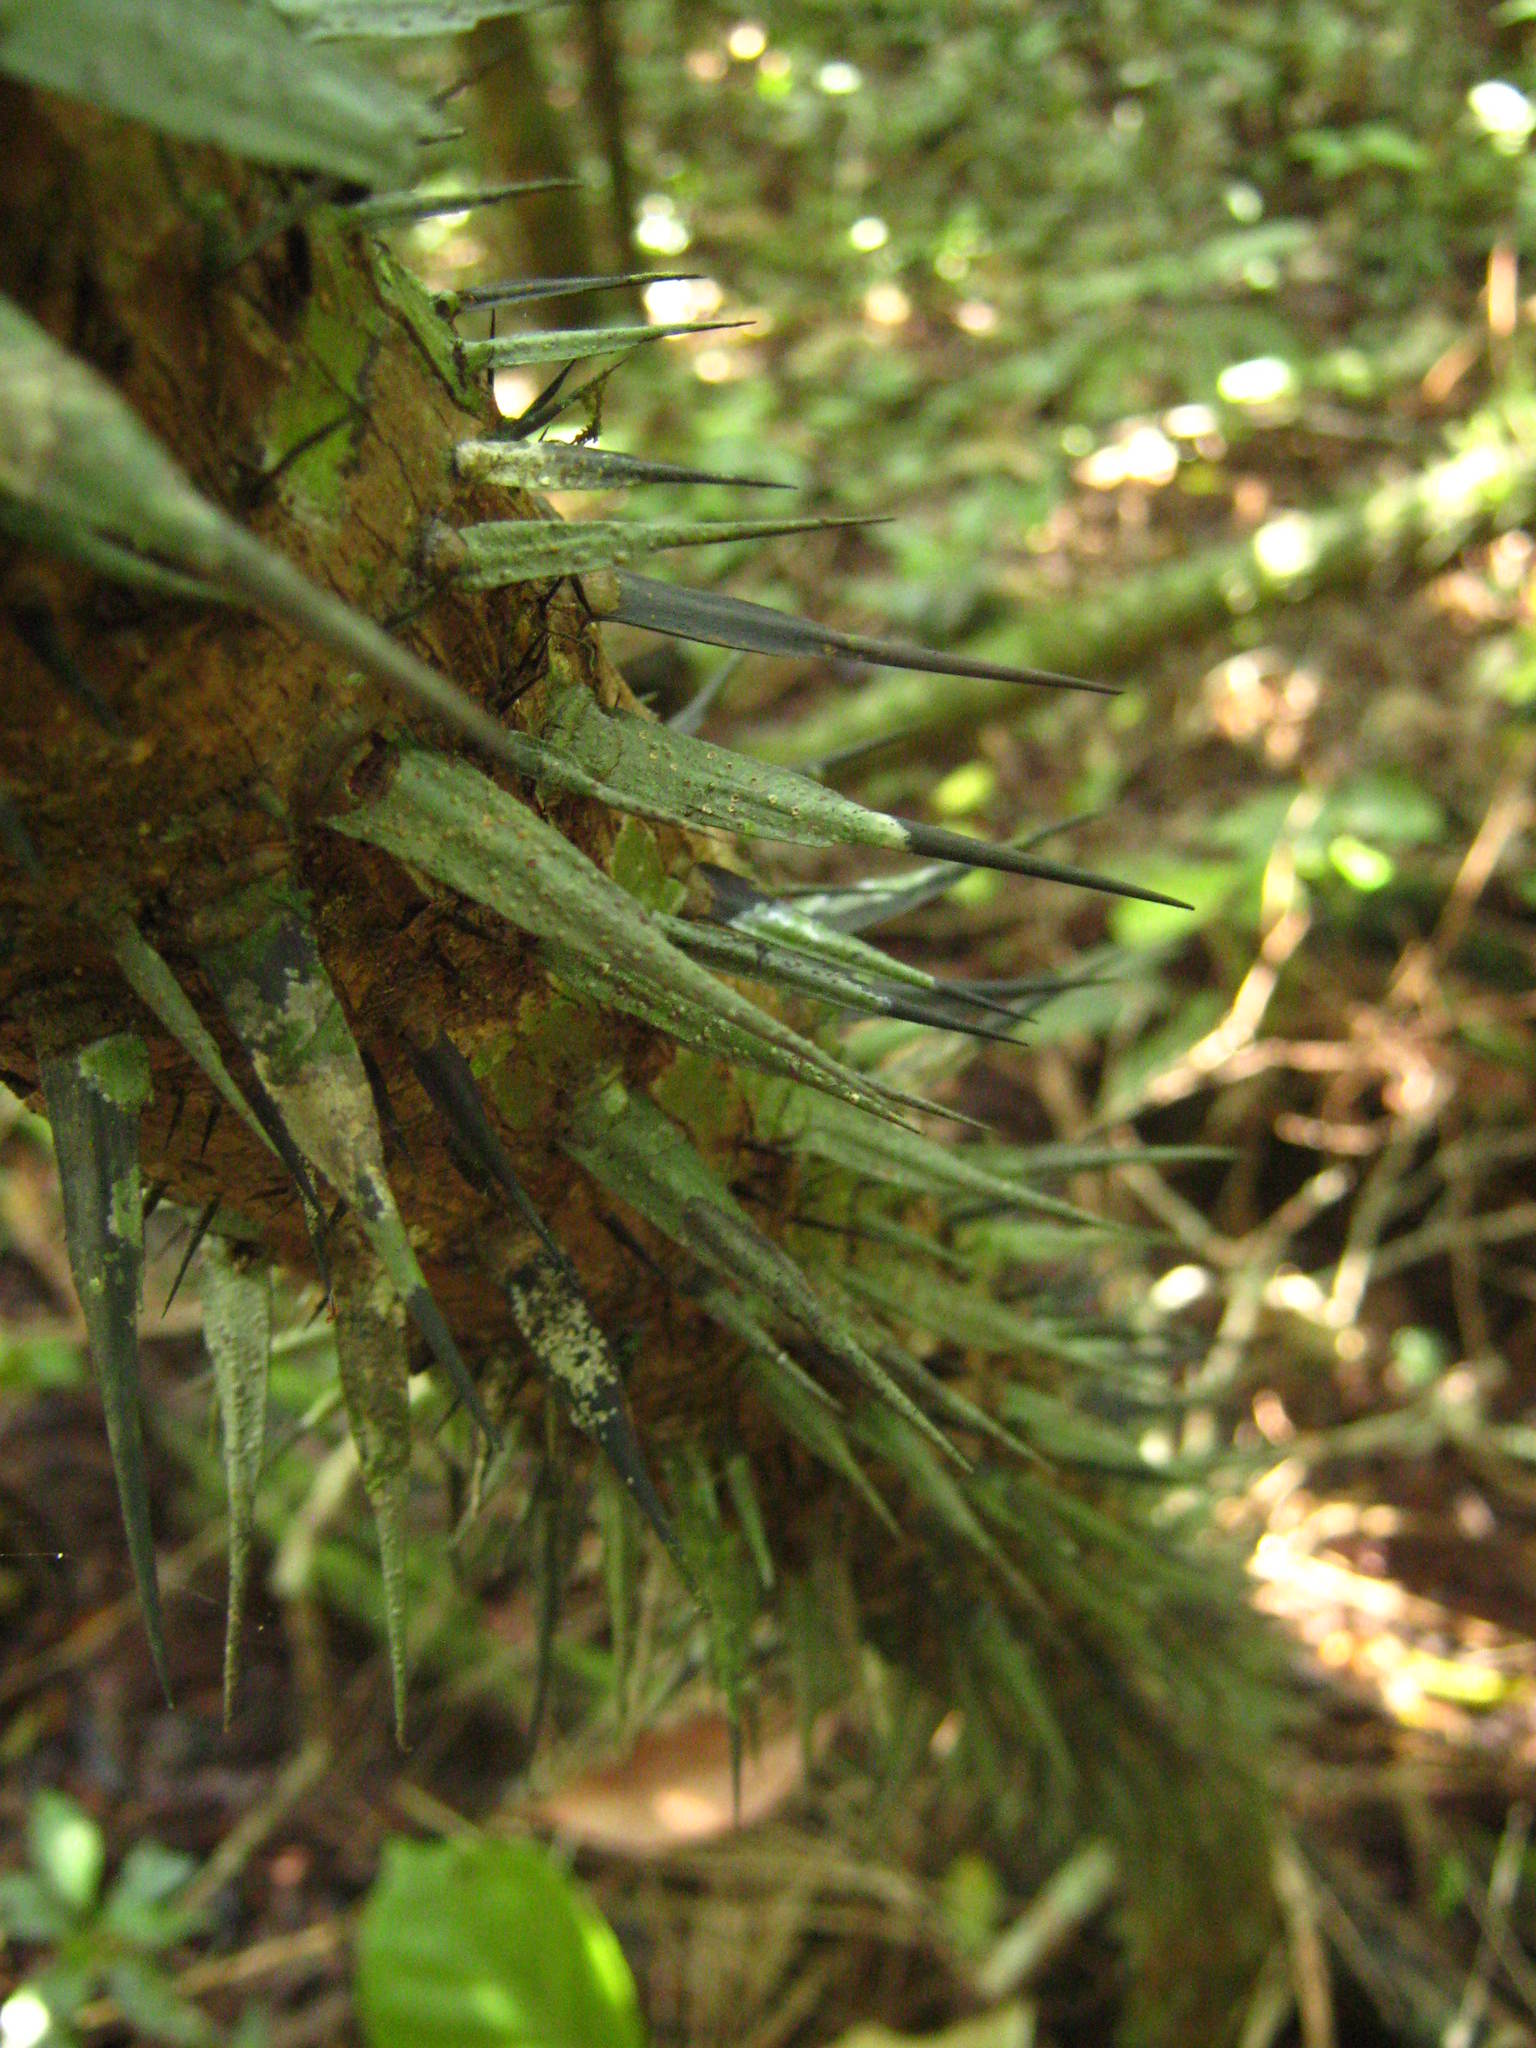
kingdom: Plantae
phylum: Tracheophyta
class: Liliopsida
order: Arecales
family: Arecaceae
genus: Astrocaryum
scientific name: Astrocaryum mexicanum
